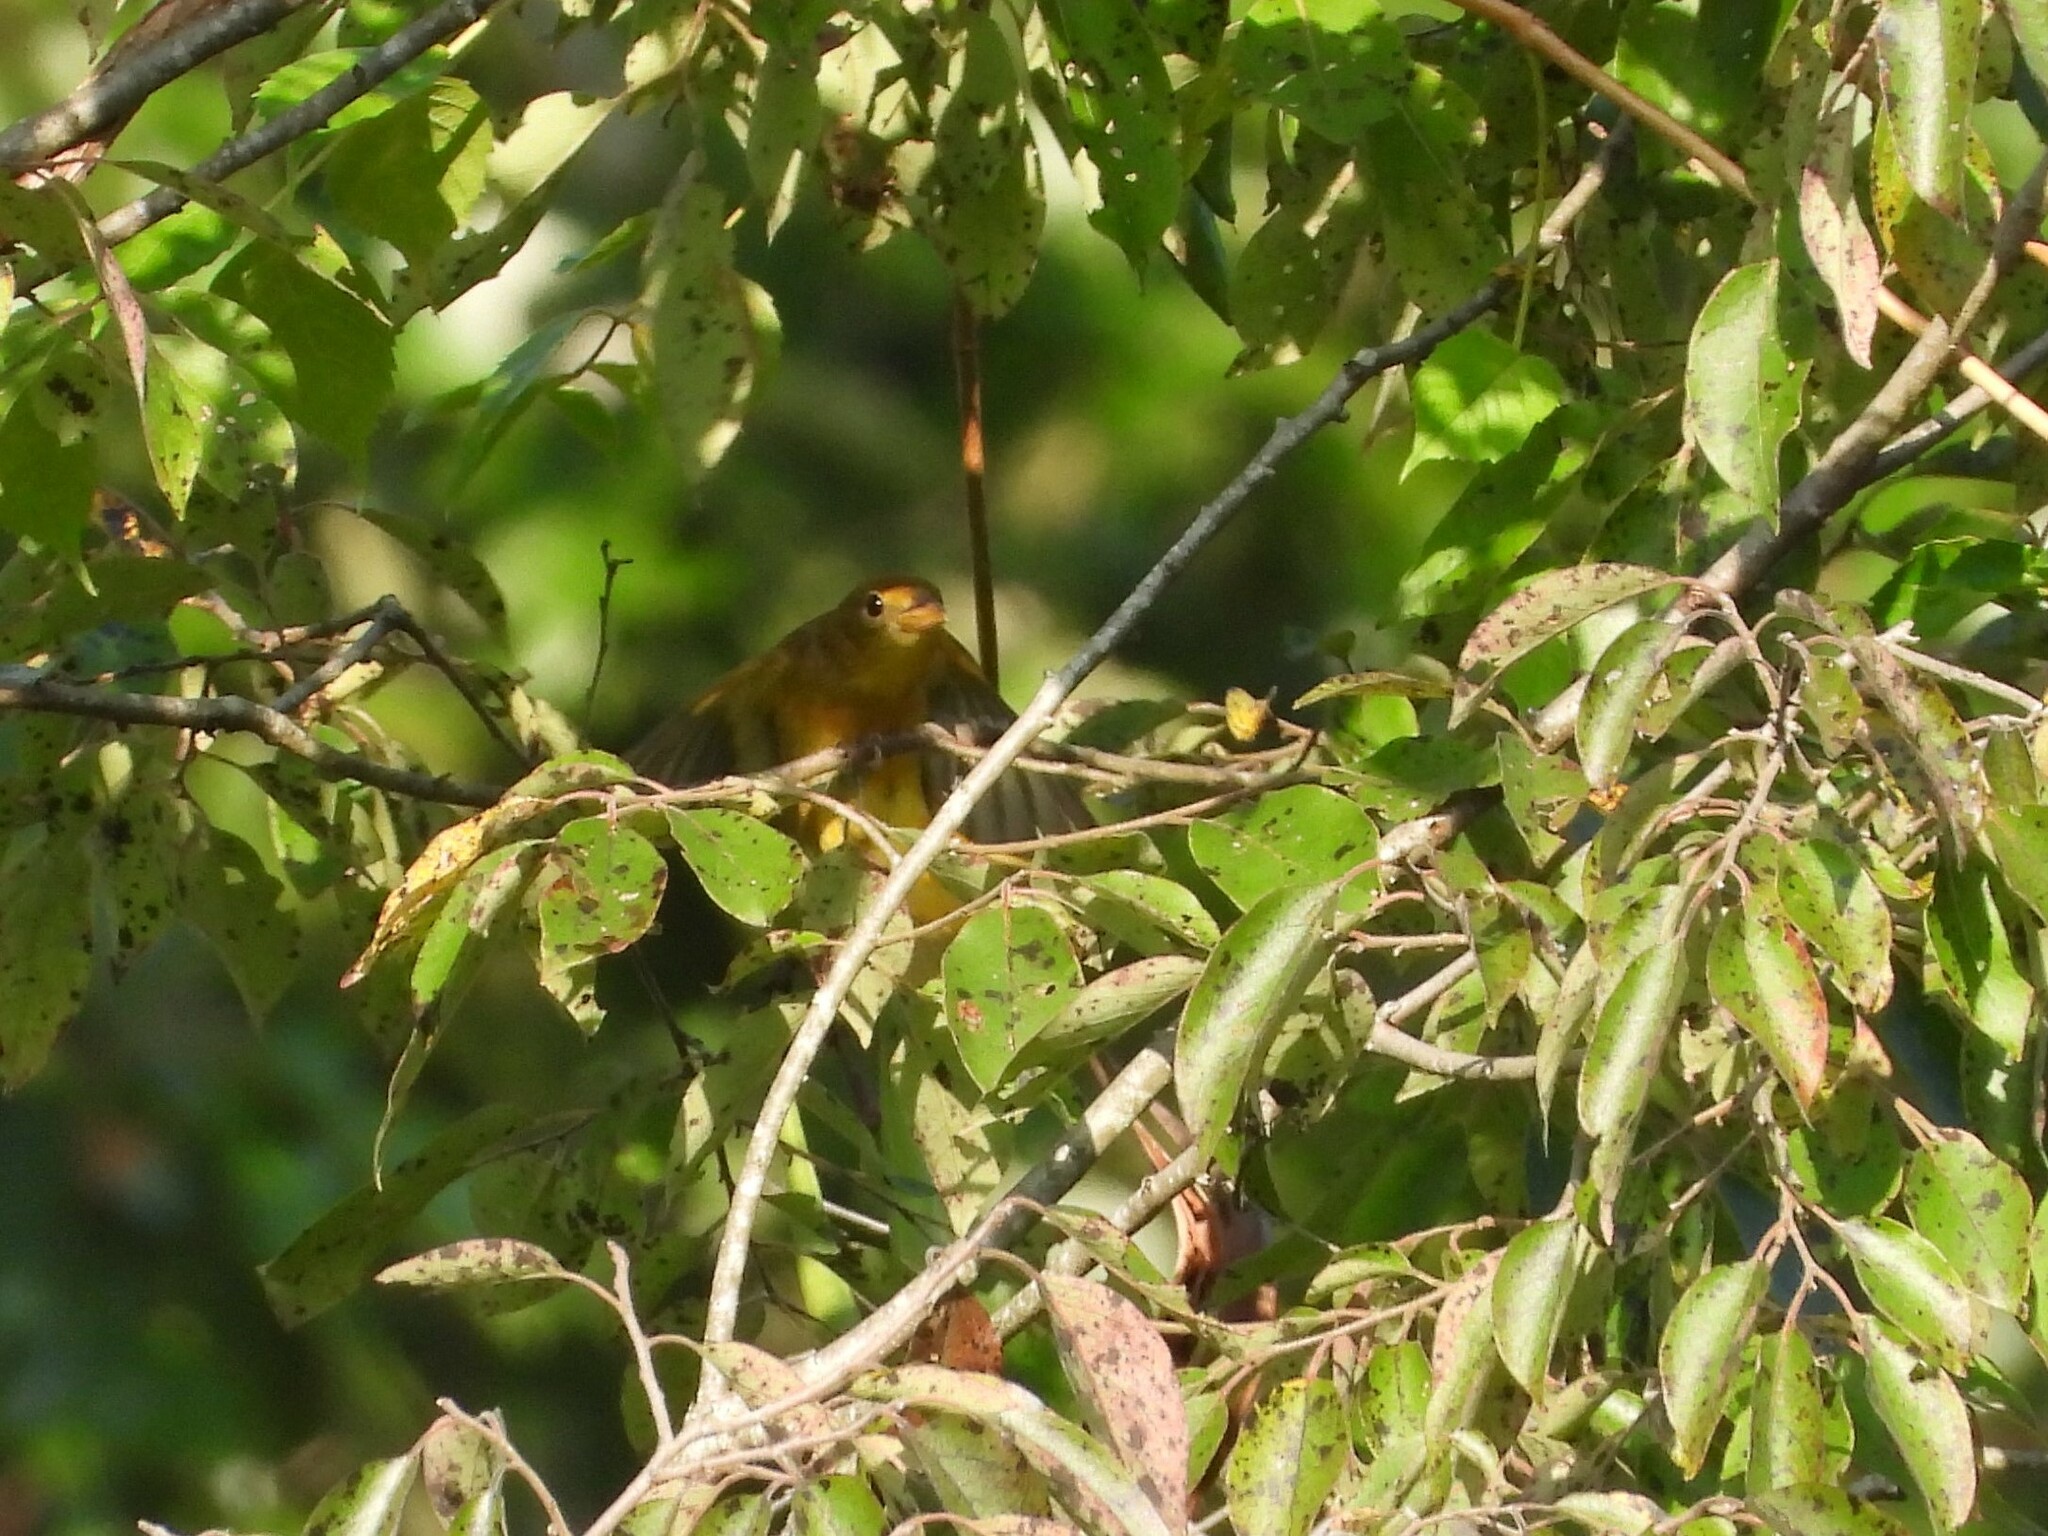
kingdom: Animalia
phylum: Chordata
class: Aves
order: Passeriformes
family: Cardinalidae
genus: Piranga
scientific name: Piranga rubra
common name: Summer tanager
